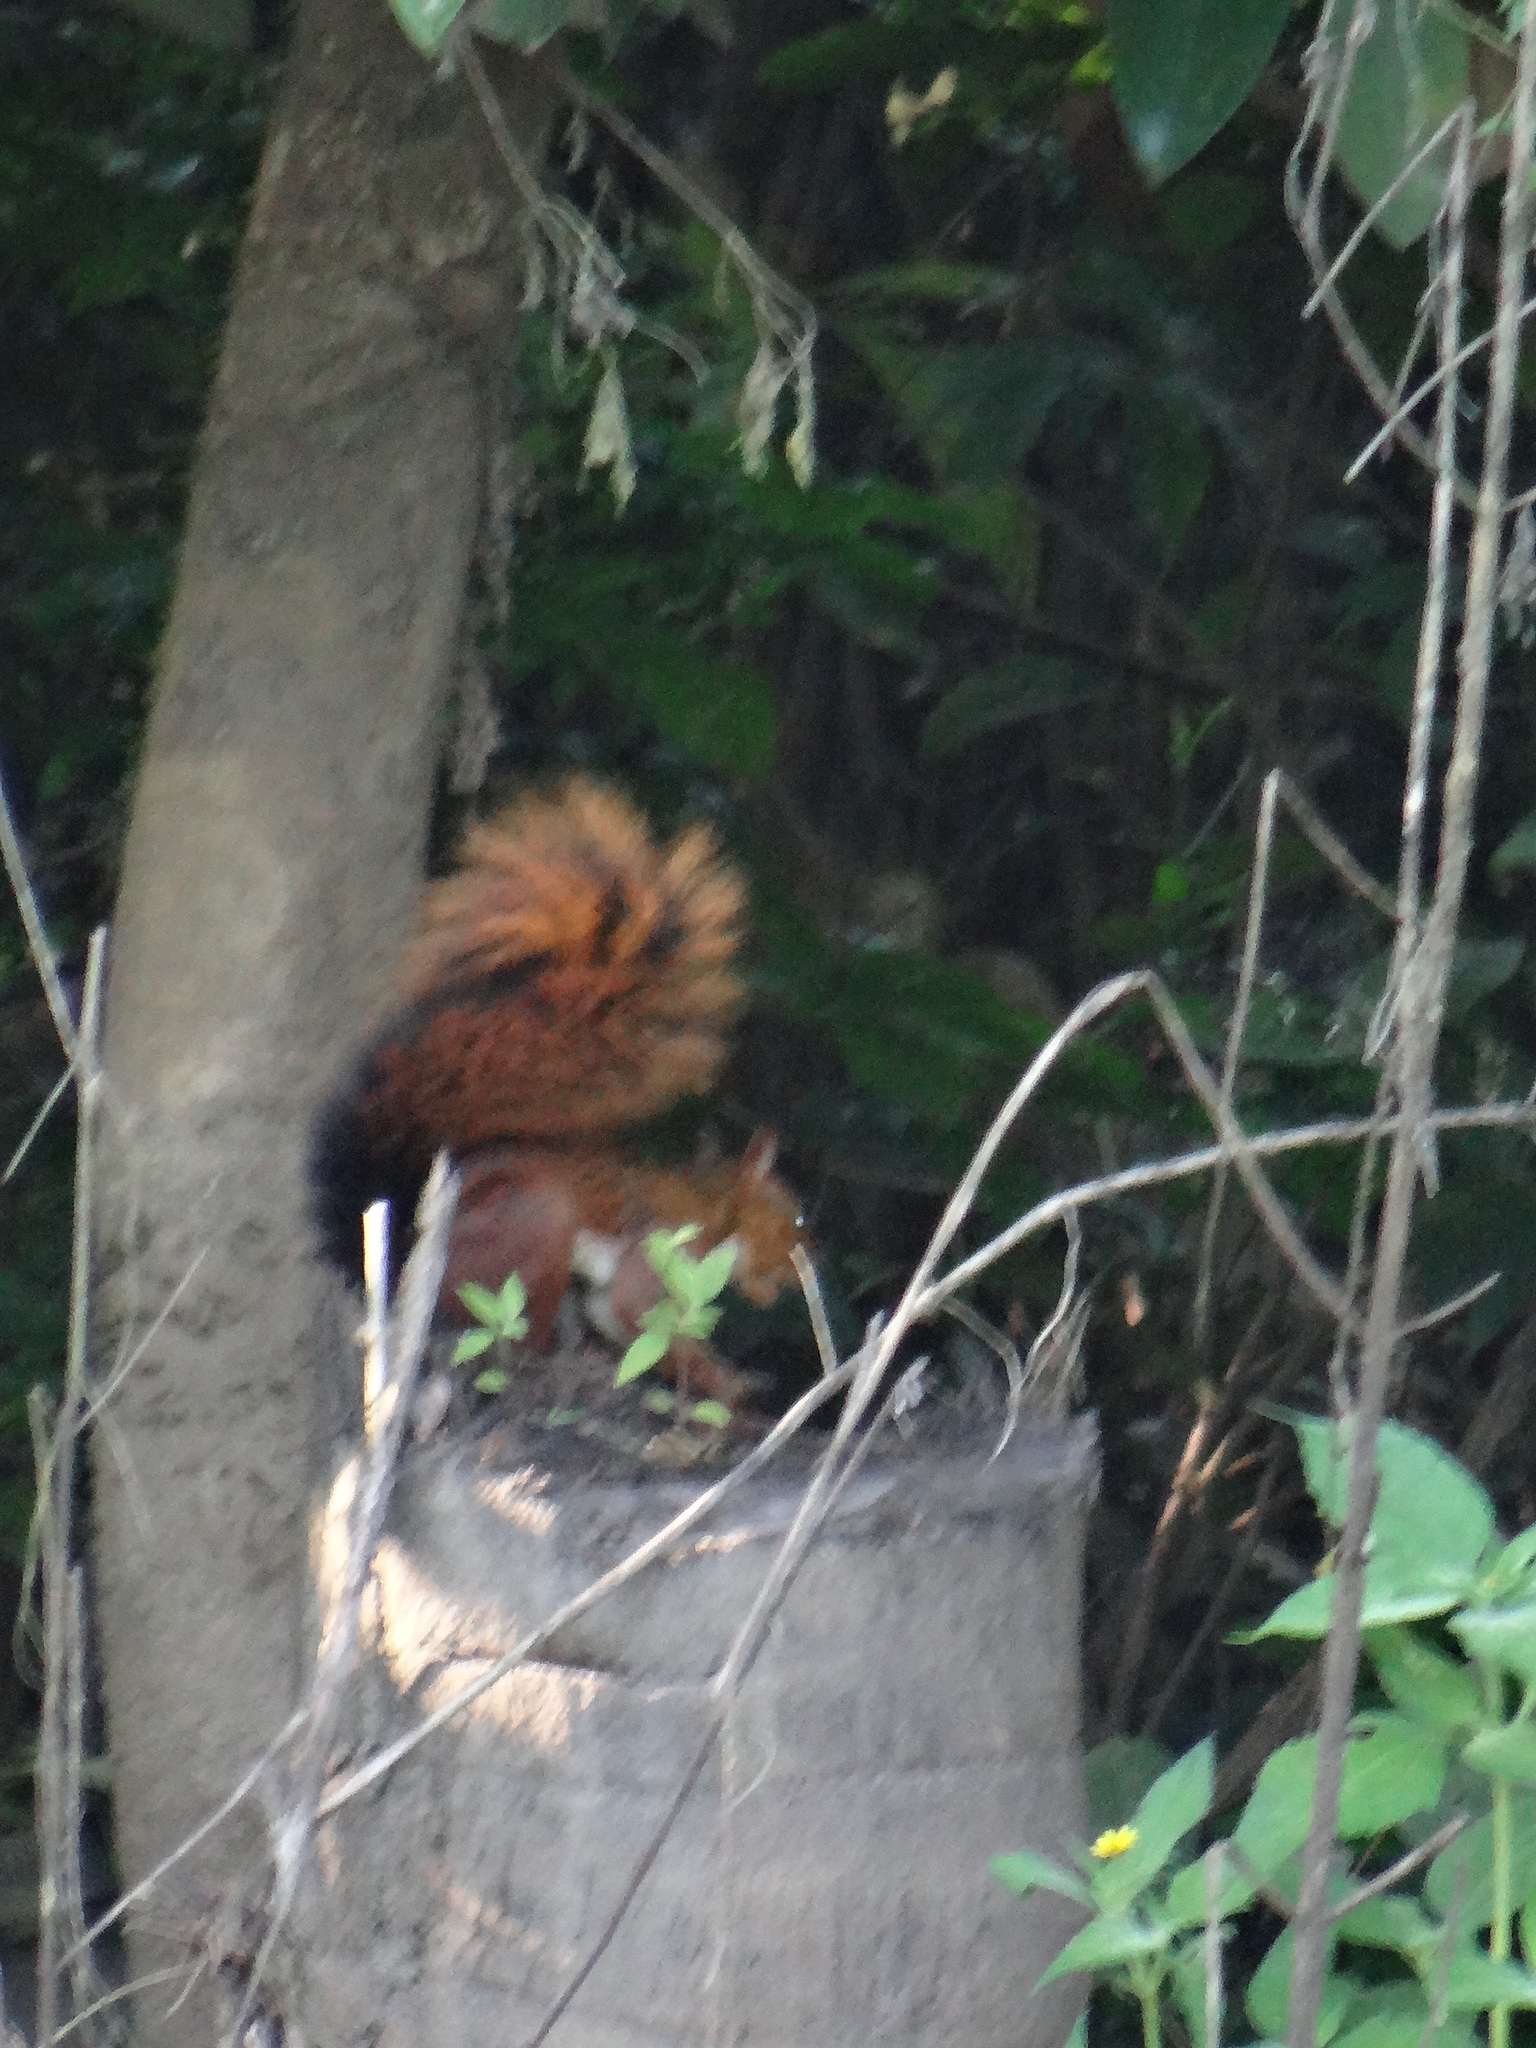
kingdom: Animalia
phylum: Chordata
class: Mammalia
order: Rodentia
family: Sciuridae
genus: Sciurus
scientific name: Sciurus spadiceus
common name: Southern amazon red squirrel
